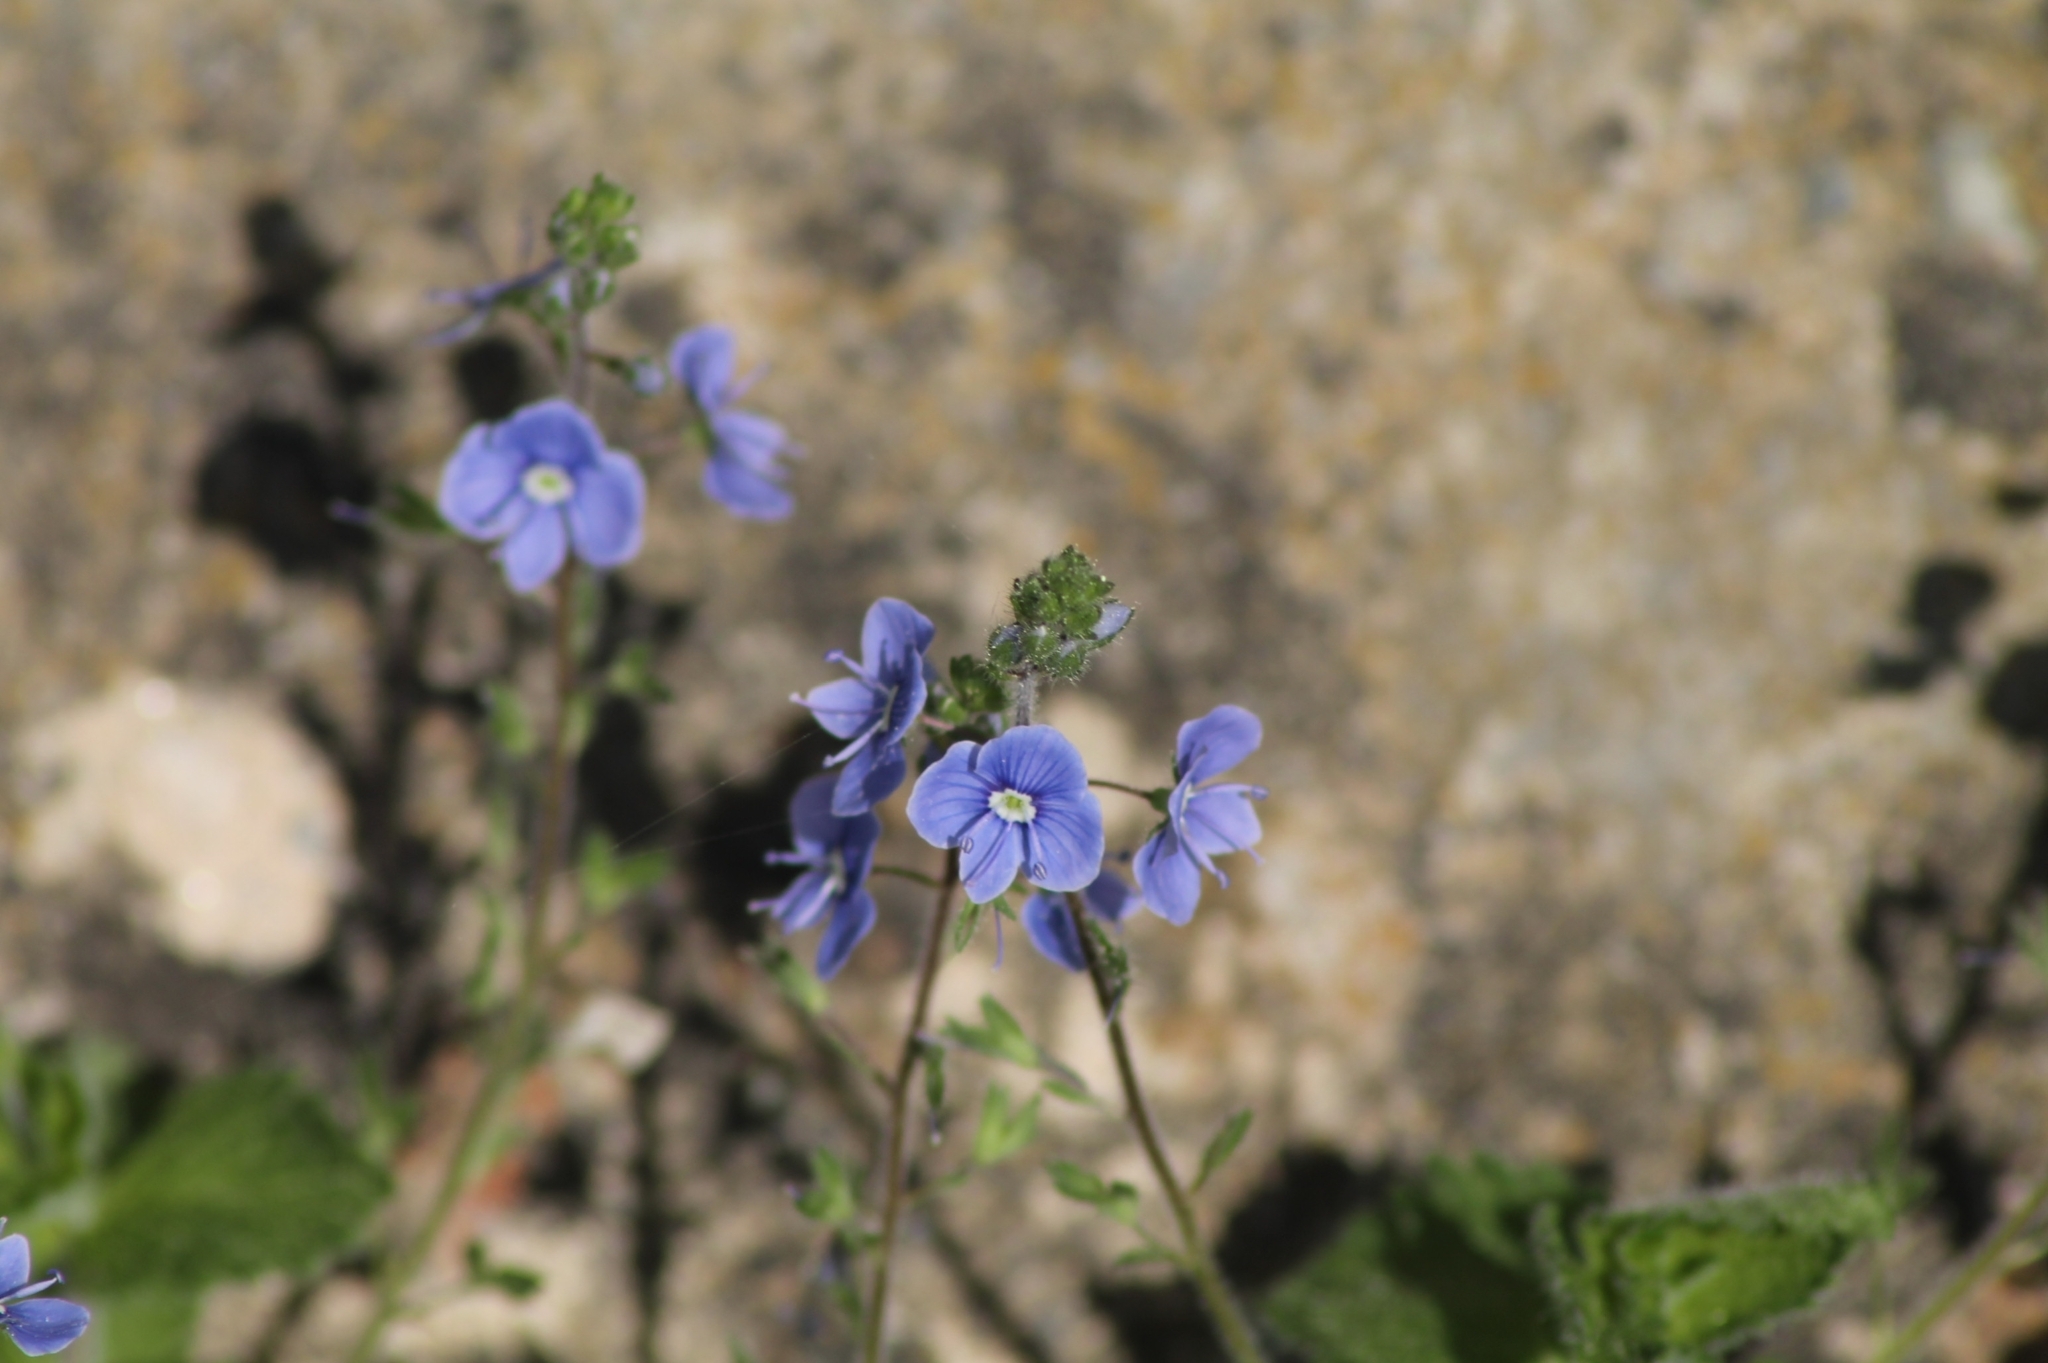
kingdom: Plantae
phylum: Tracheophyta
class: Magnoliopsida
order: Lamiales
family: Plantaginaceae
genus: Veronica
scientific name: Veronica chamaedrys
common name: Germander speedwell
